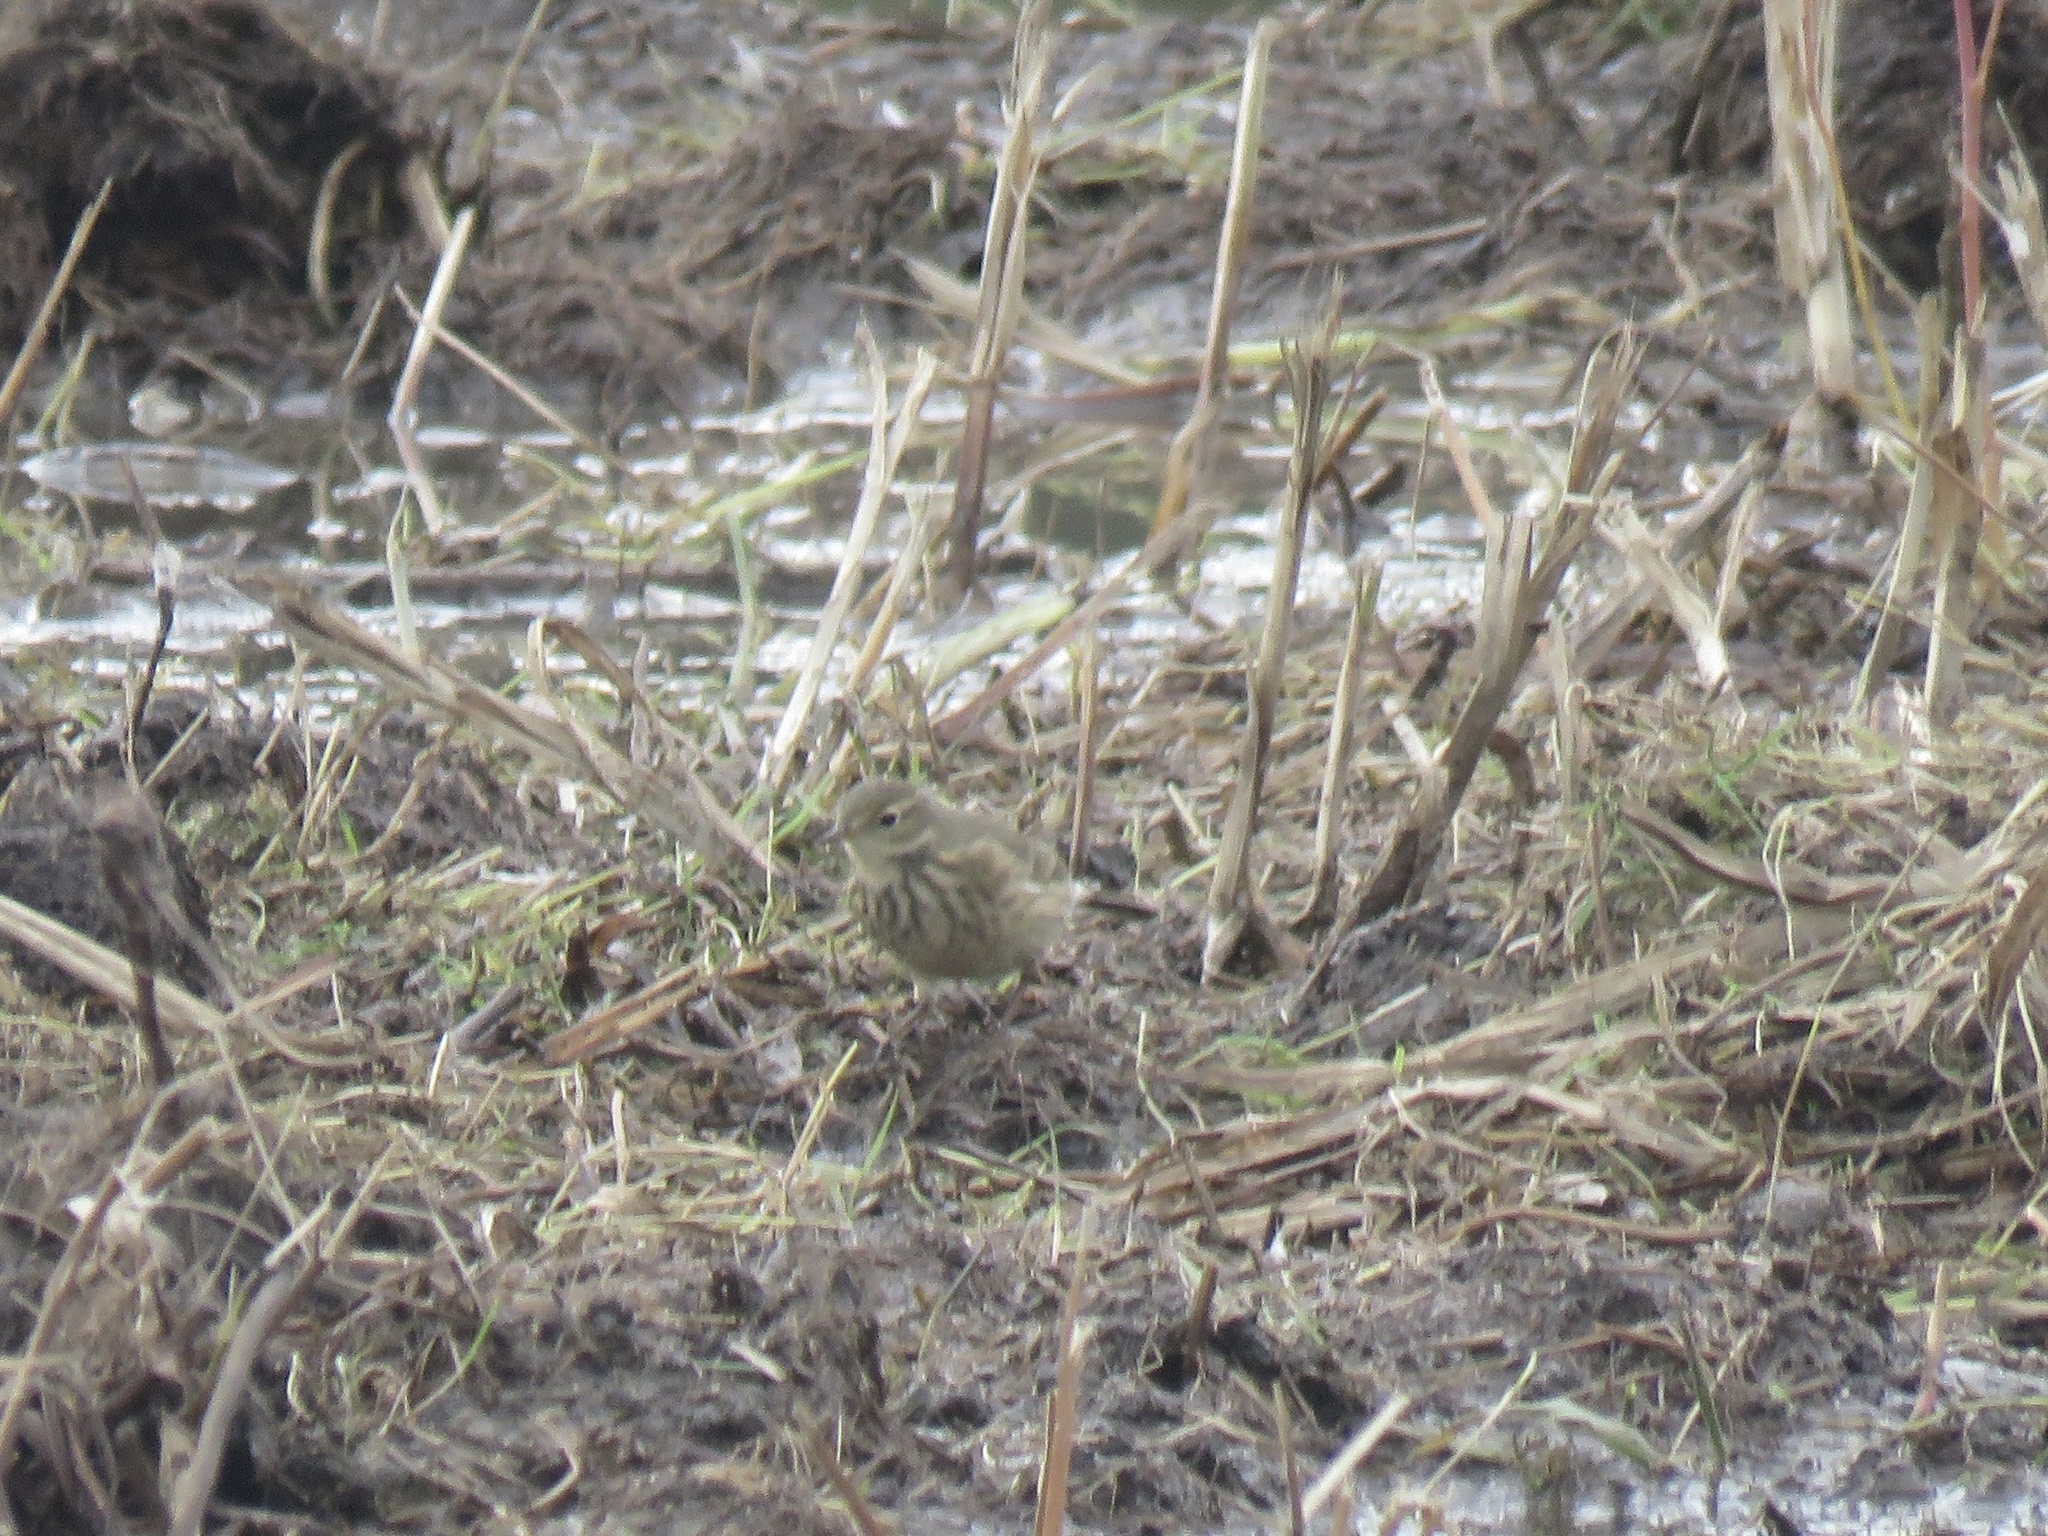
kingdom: Animalia
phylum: Chordata
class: Aves
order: Passeriformes
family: Motacillidae
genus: Anthus
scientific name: Anthus rubescens
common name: Buff-bellied pipit
